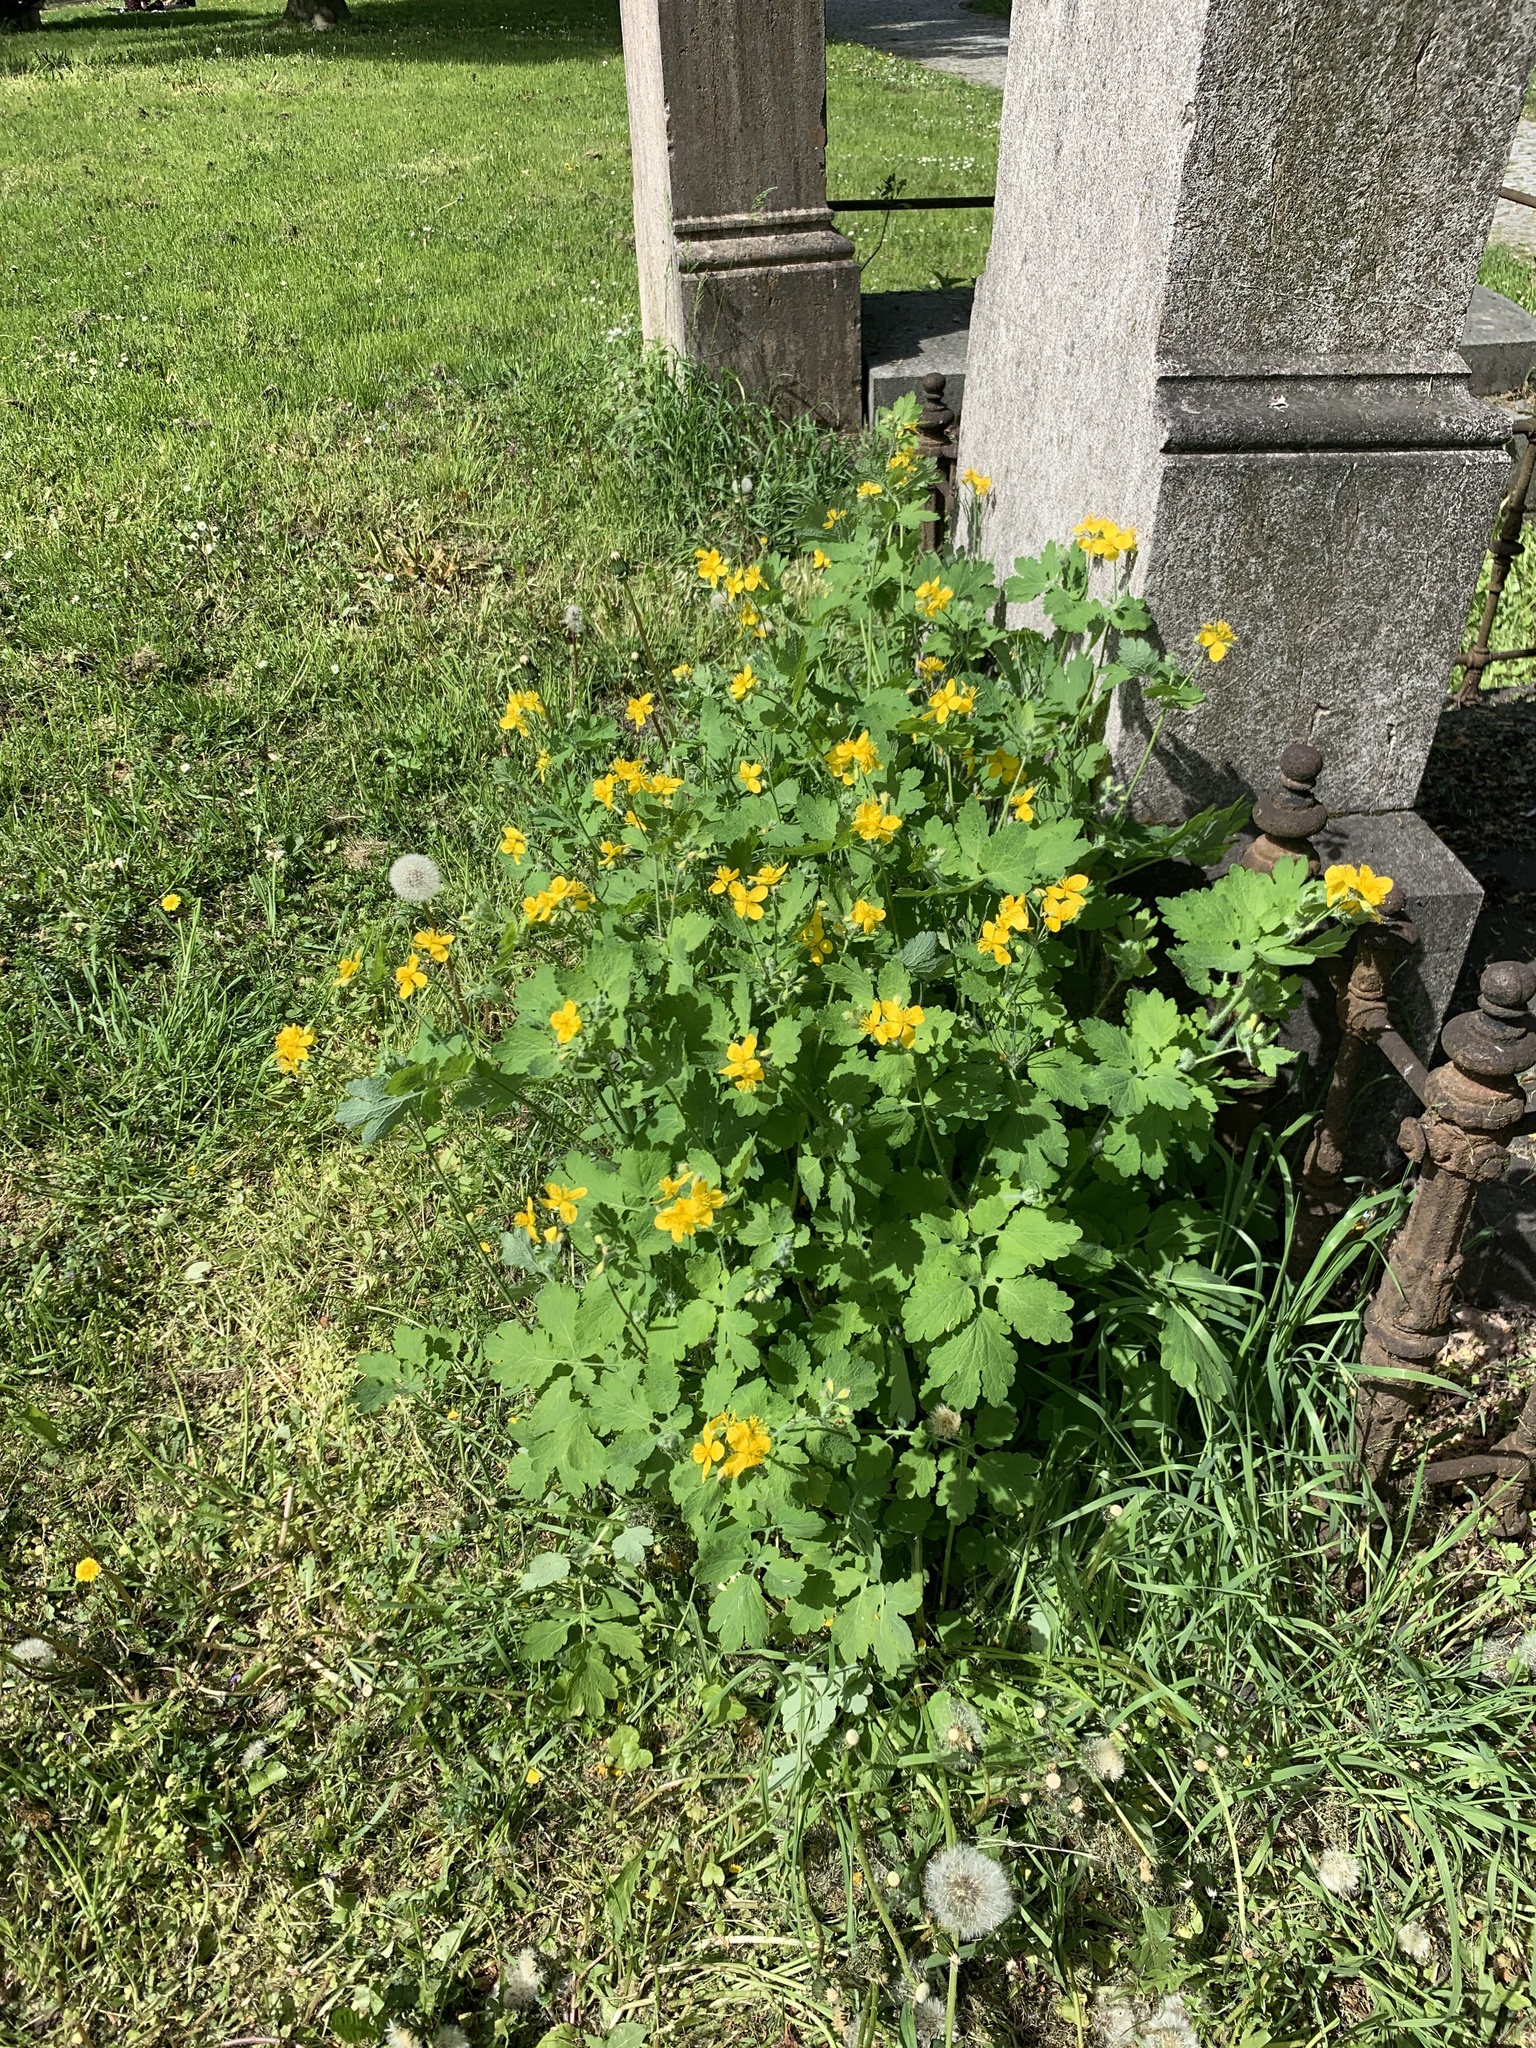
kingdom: Plantae
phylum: Tracheophyta
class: Magnoliopsida
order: Ranunculales
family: Papaveraceae
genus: Chelidonium
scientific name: Chelidonium majus
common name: Greater celandine
